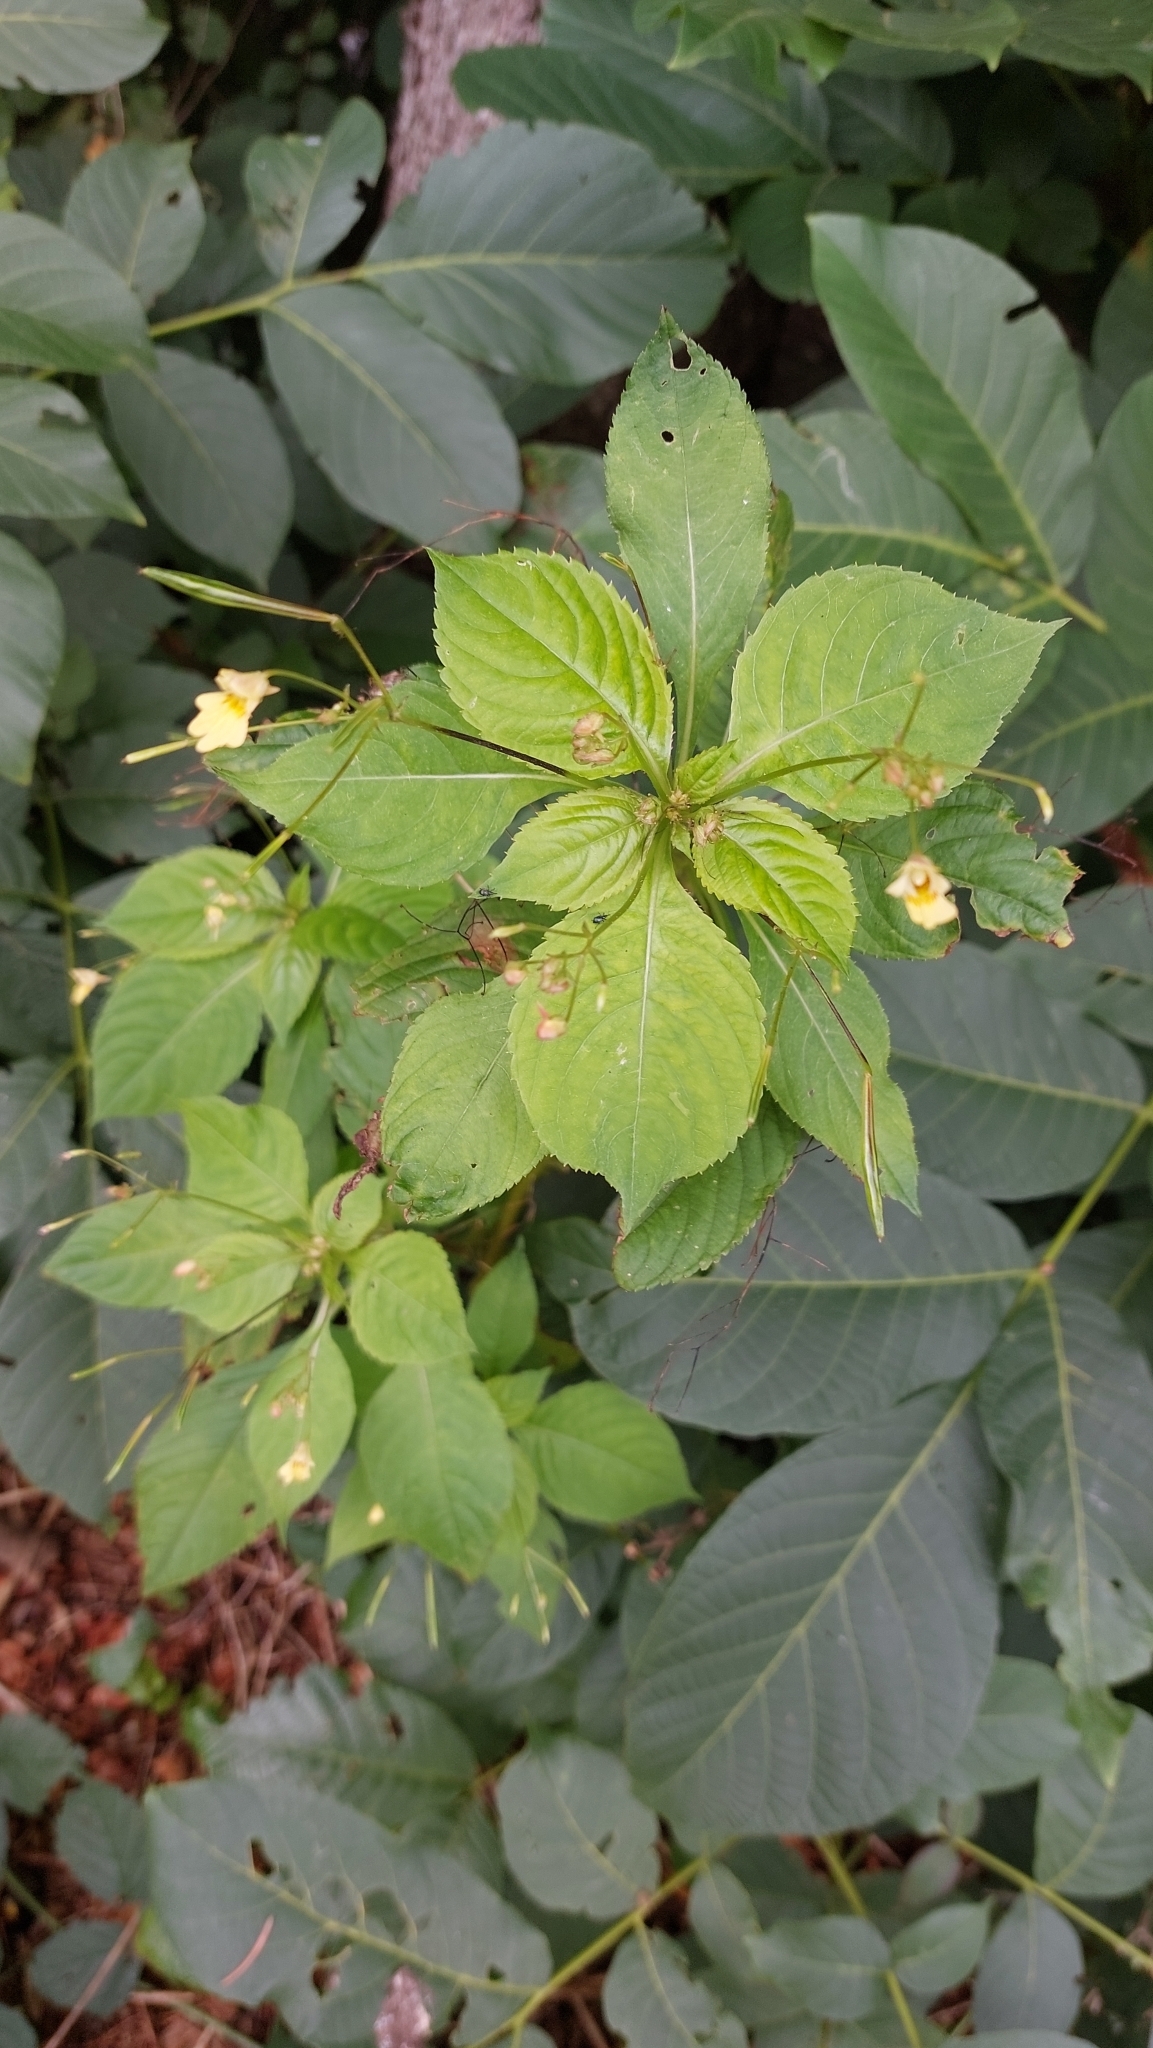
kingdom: Plantae
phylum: Tracheophyta
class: Magnoliopsida
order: Ericales
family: Balsaminaceae
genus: Impatiens
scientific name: Impatiens parviflora
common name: Small balsam
